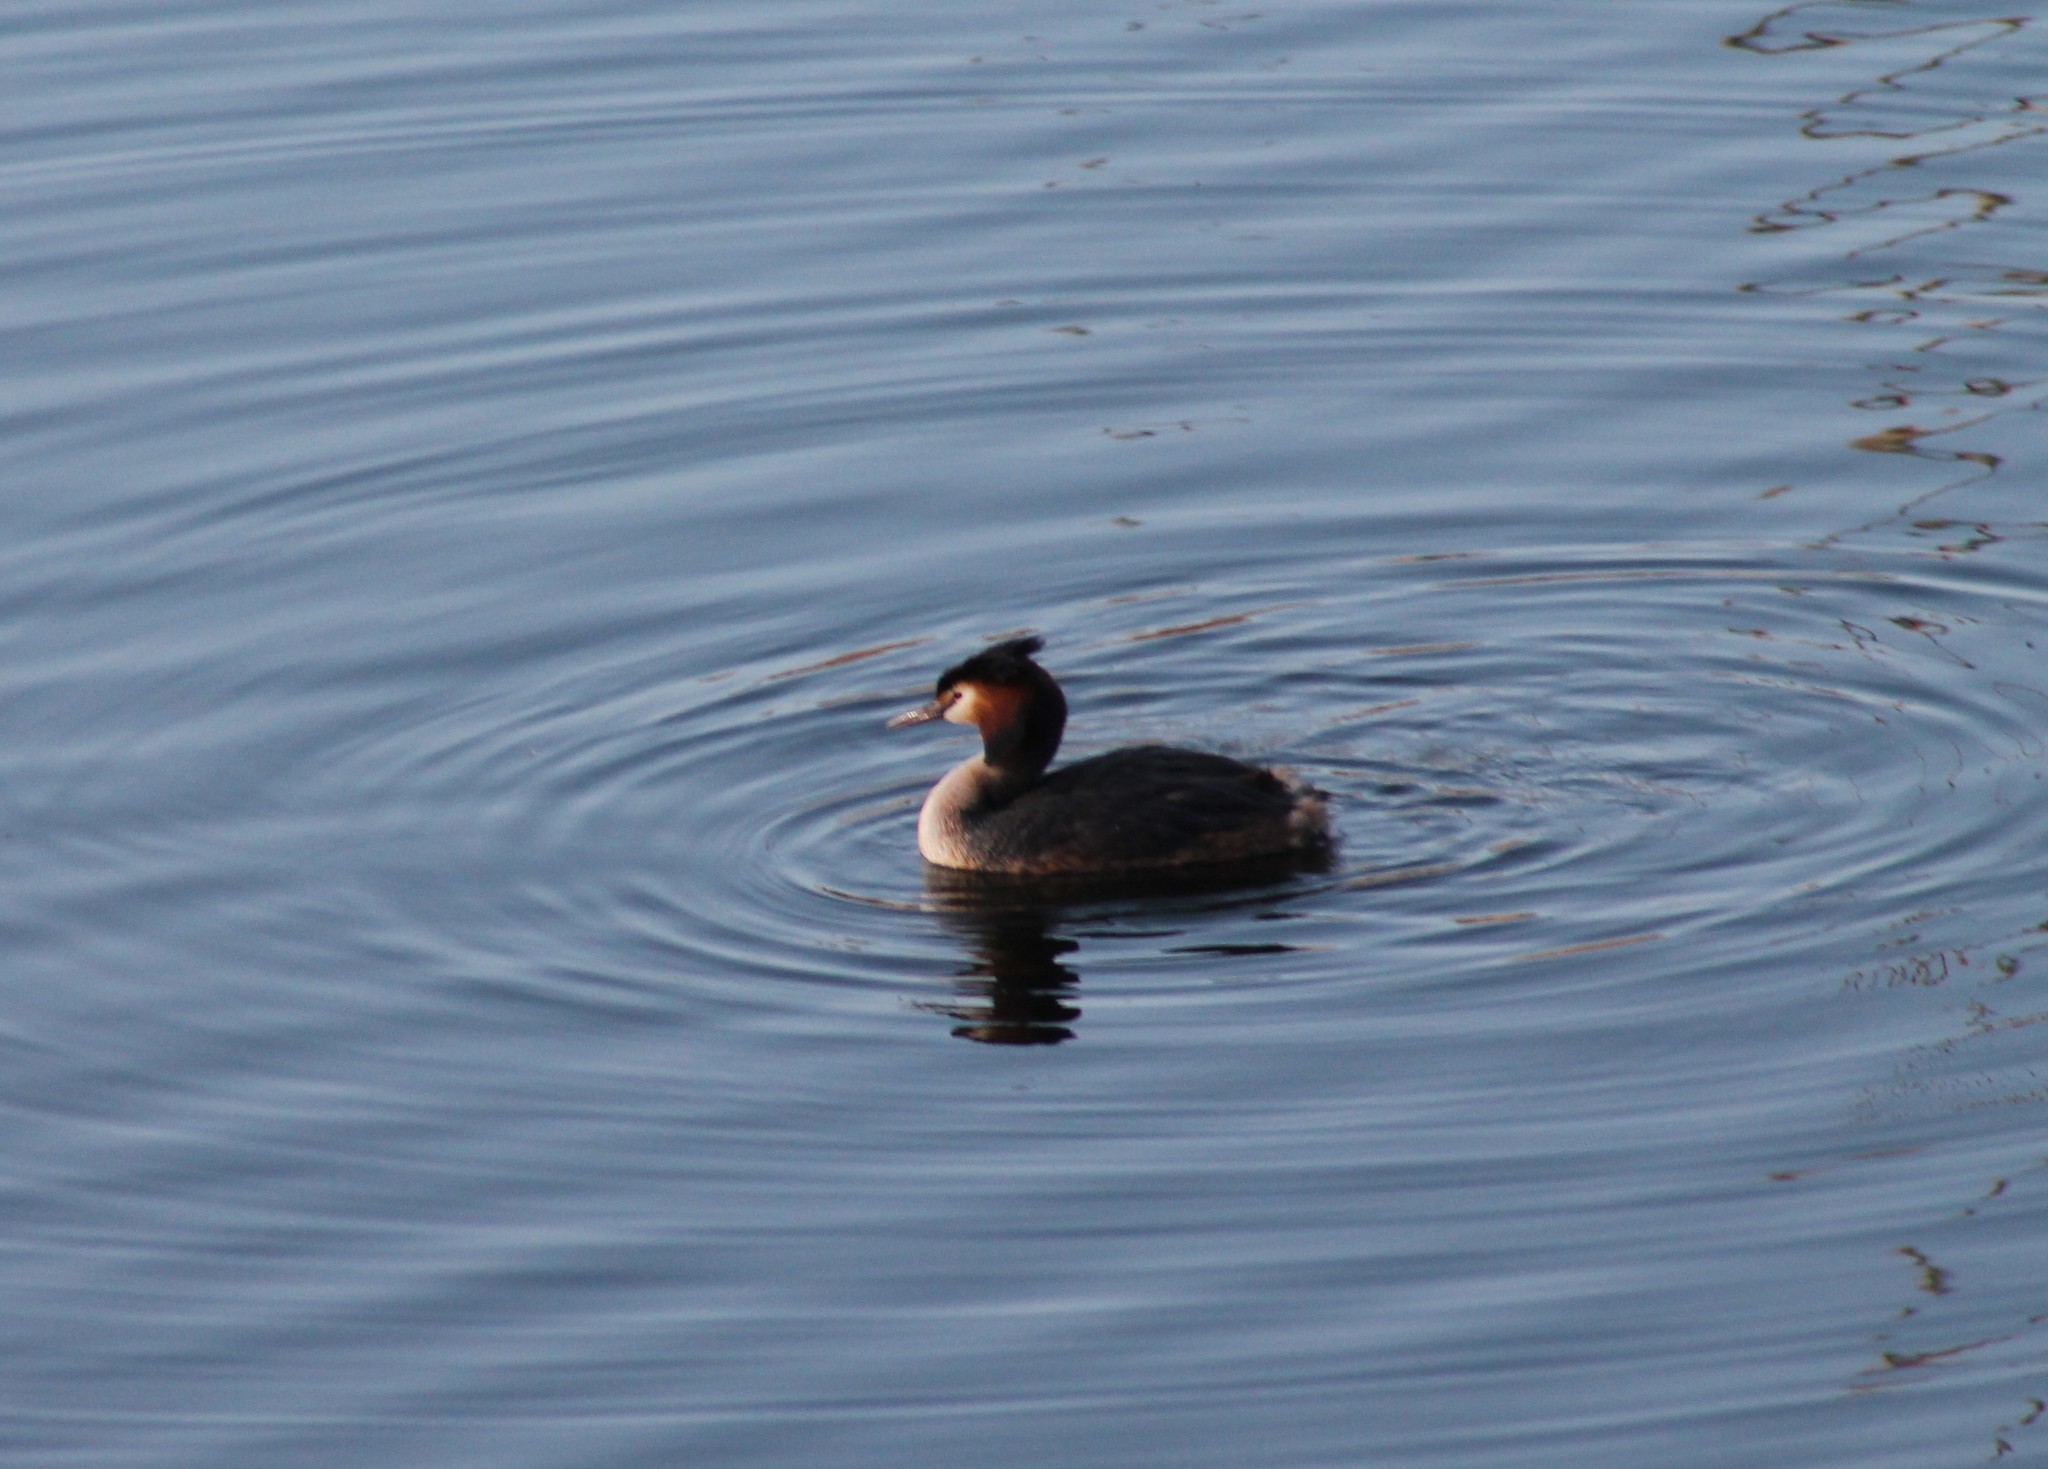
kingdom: Animalia
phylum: Chordata
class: Aves
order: Podicipediformes
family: Podicipedidae
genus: Podiceps
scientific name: Podiceps cristatus
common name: Great crested grebe
